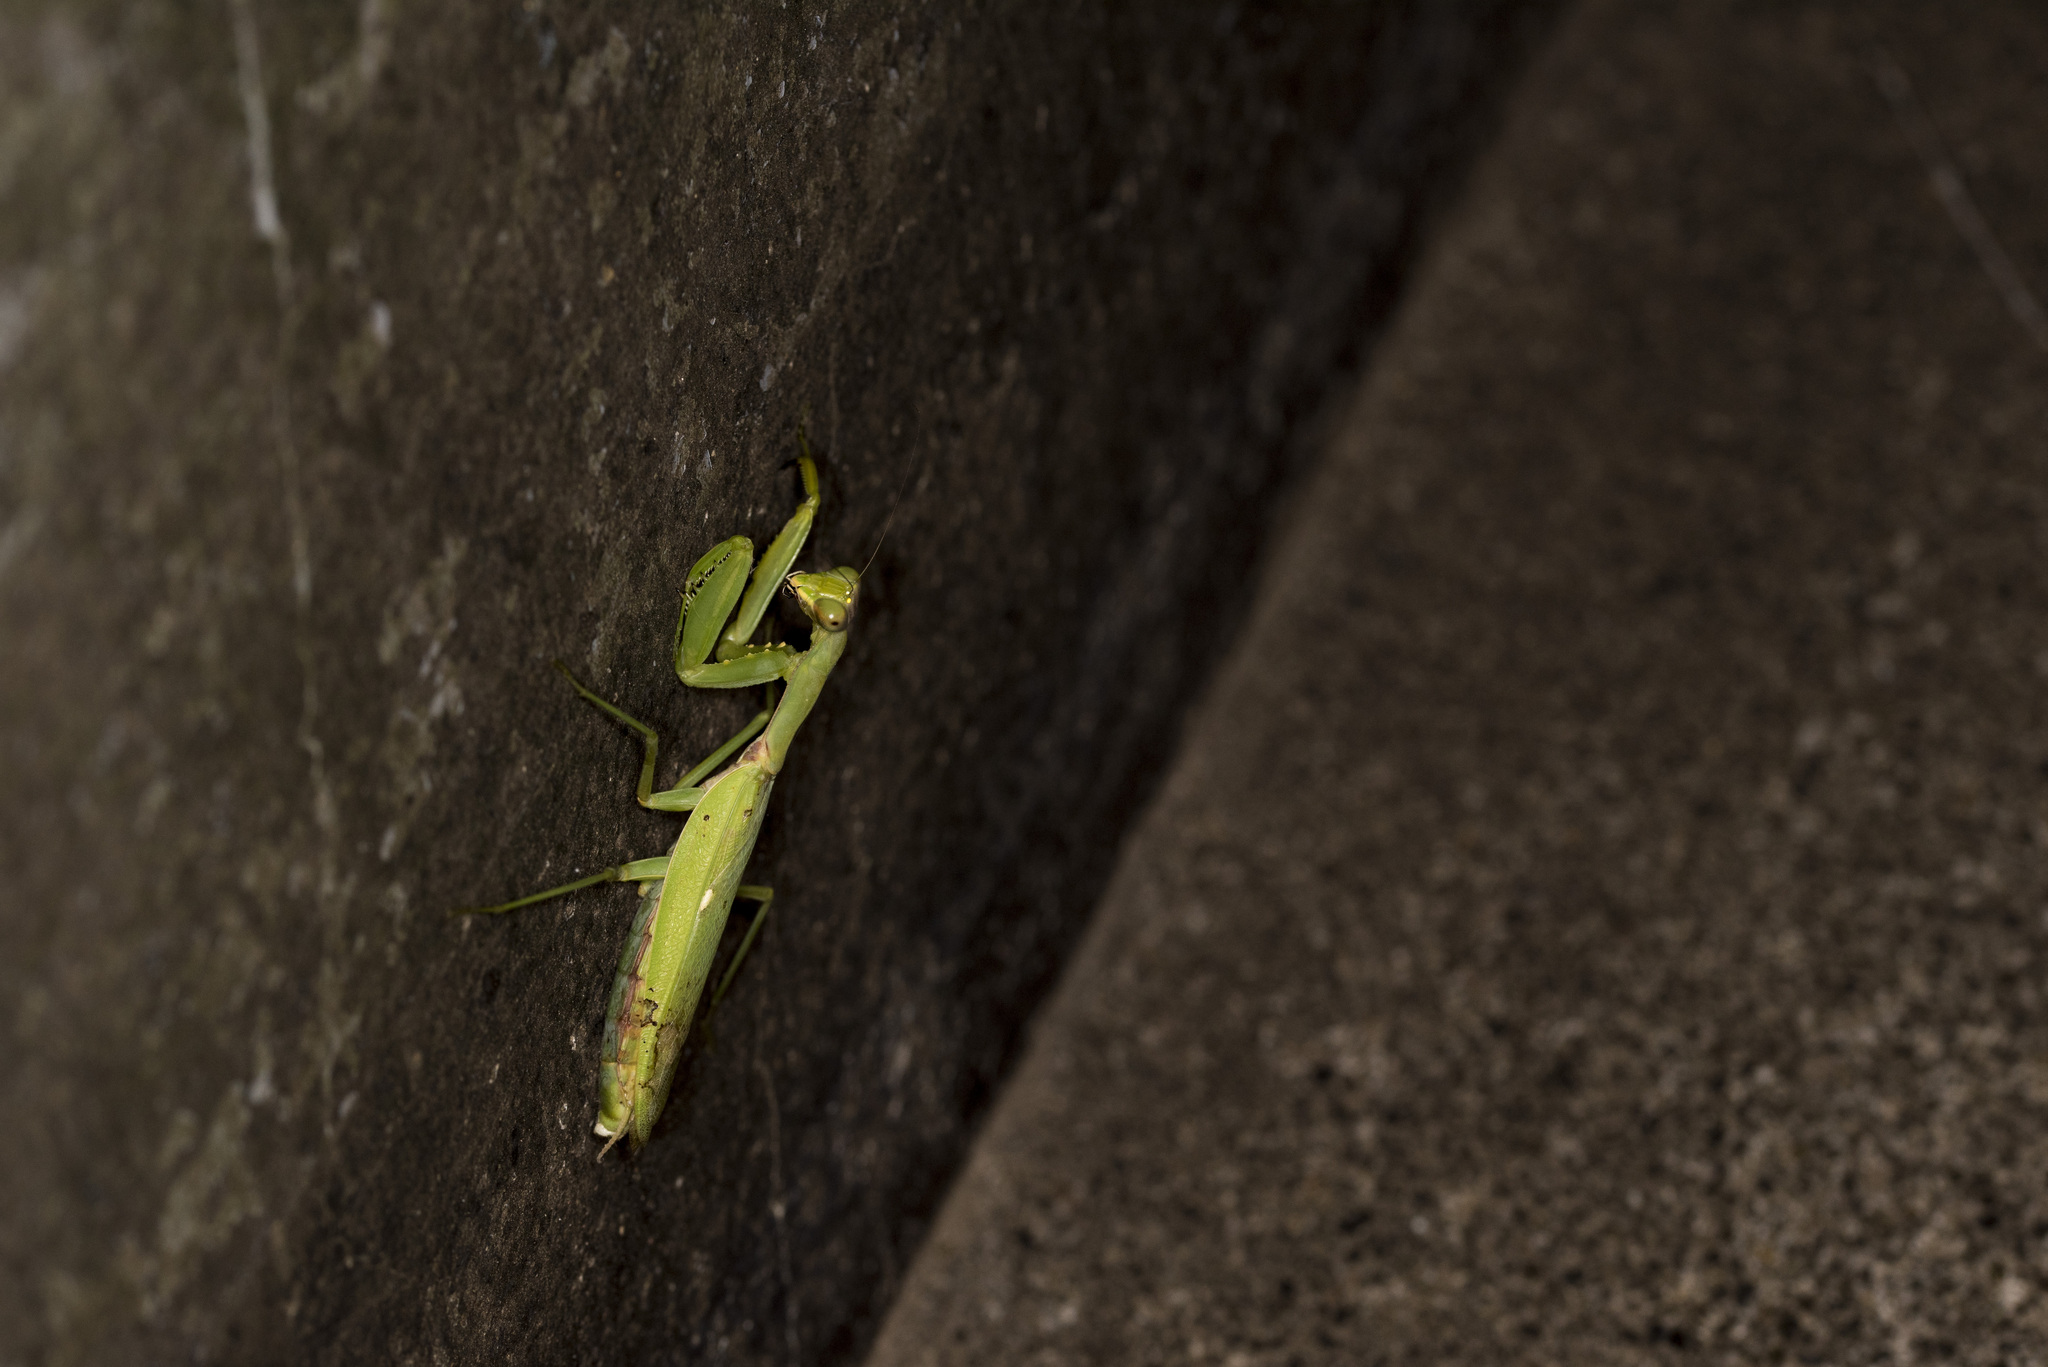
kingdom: Animalia
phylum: Arthropoda
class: Insecta
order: Mantodea
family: Mantidae
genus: Hierodula
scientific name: Hierodula patellifera
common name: Asian mantis
